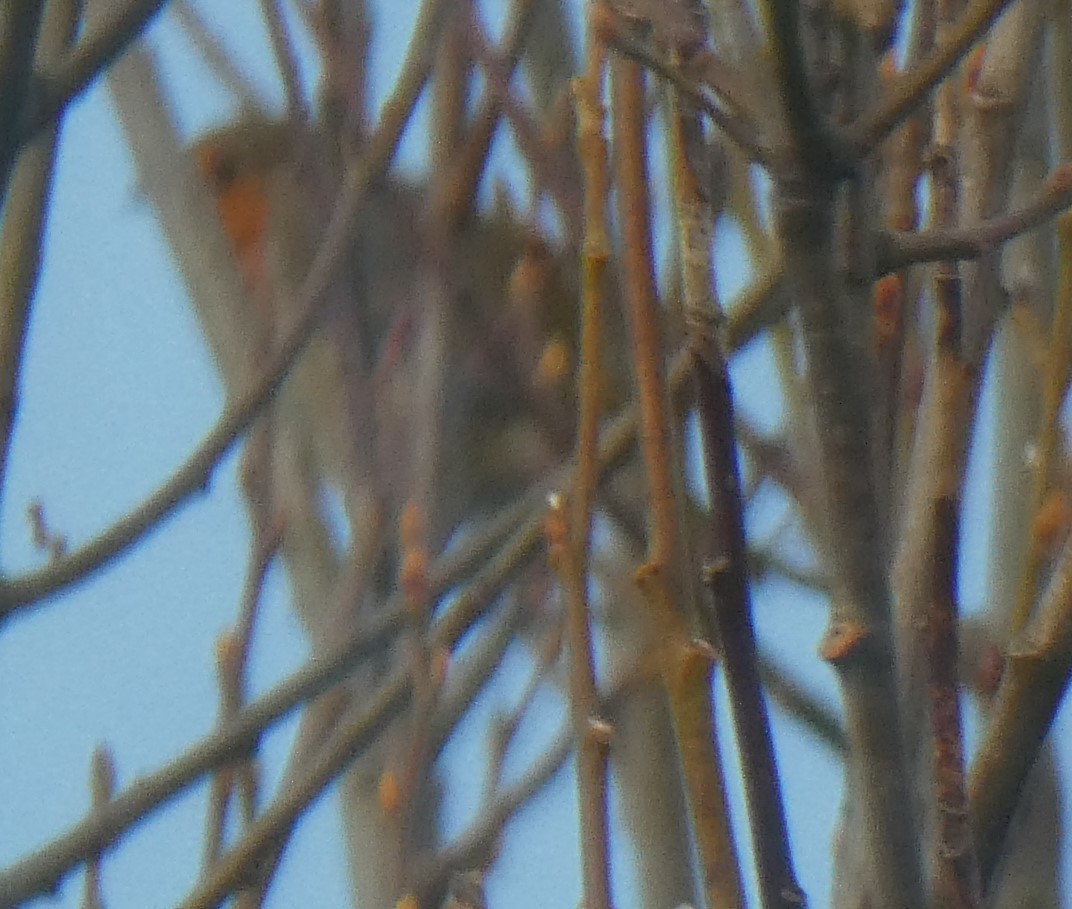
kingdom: Animalia
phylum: Chordata
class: Aves
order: Passeriformes
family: Muscicapidae
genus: Erithacus
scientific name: Erithacus rubecula
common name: European robin
